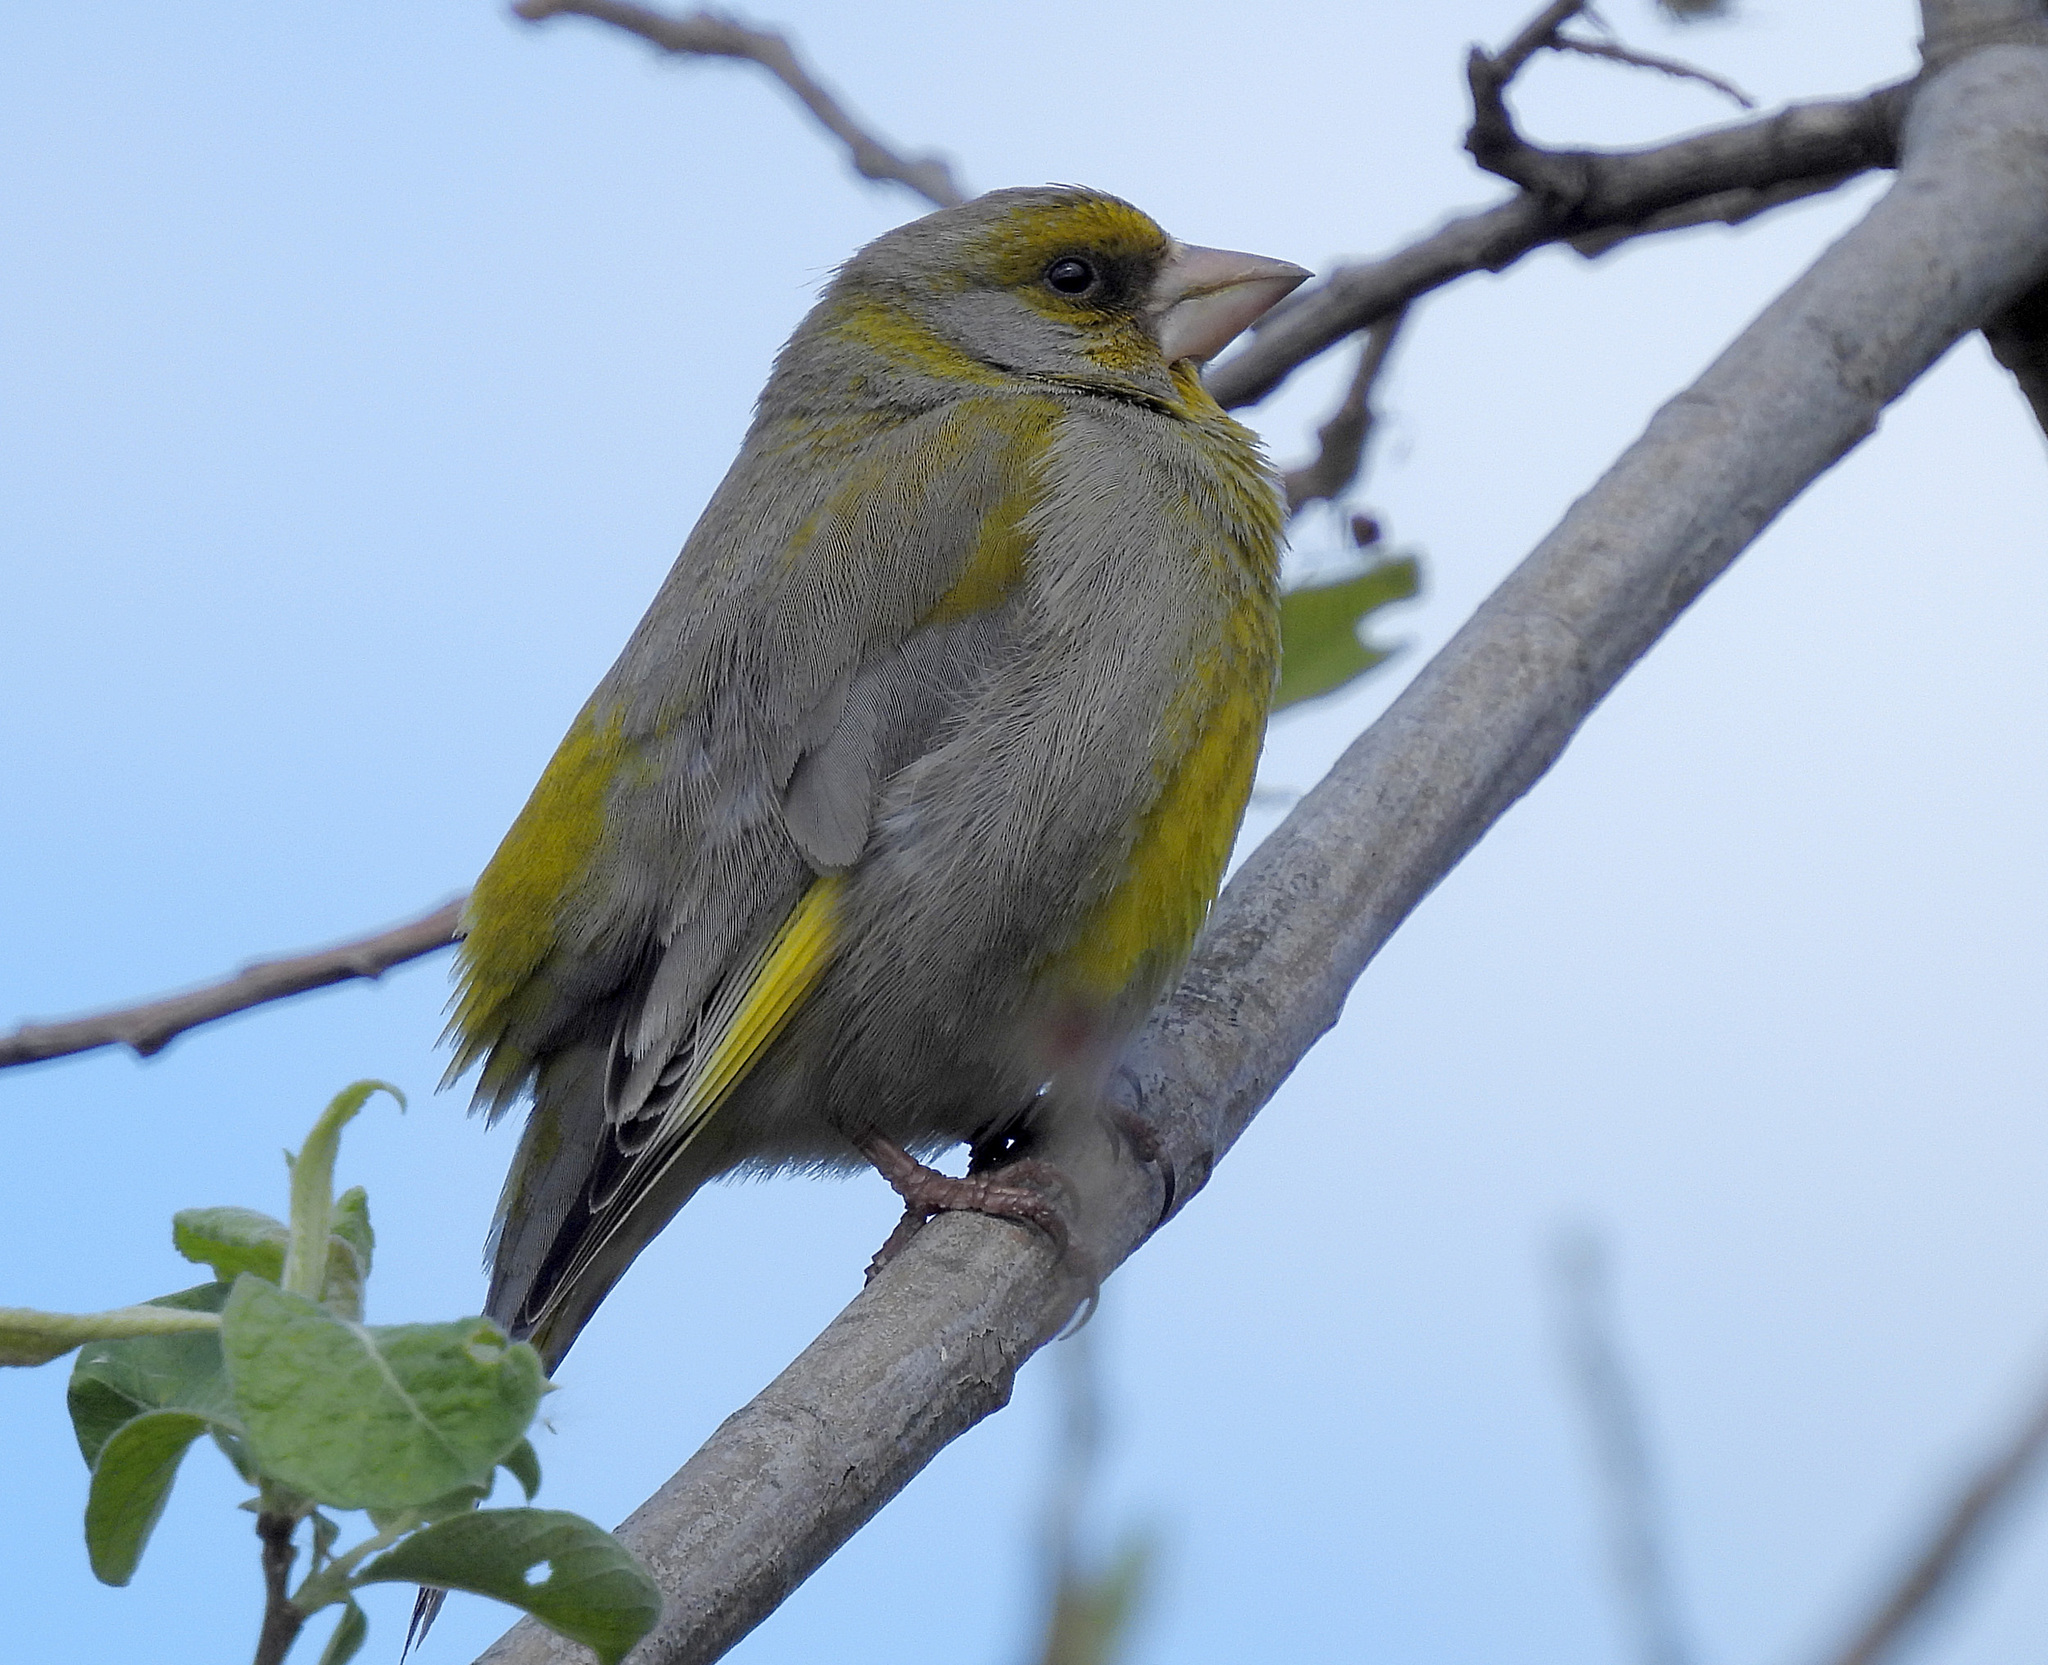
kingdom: Plantae
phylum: Tracheophyta
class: Liliopsida
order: Poales
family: Poaceae
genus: Chloris
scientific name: Chloris chloris
